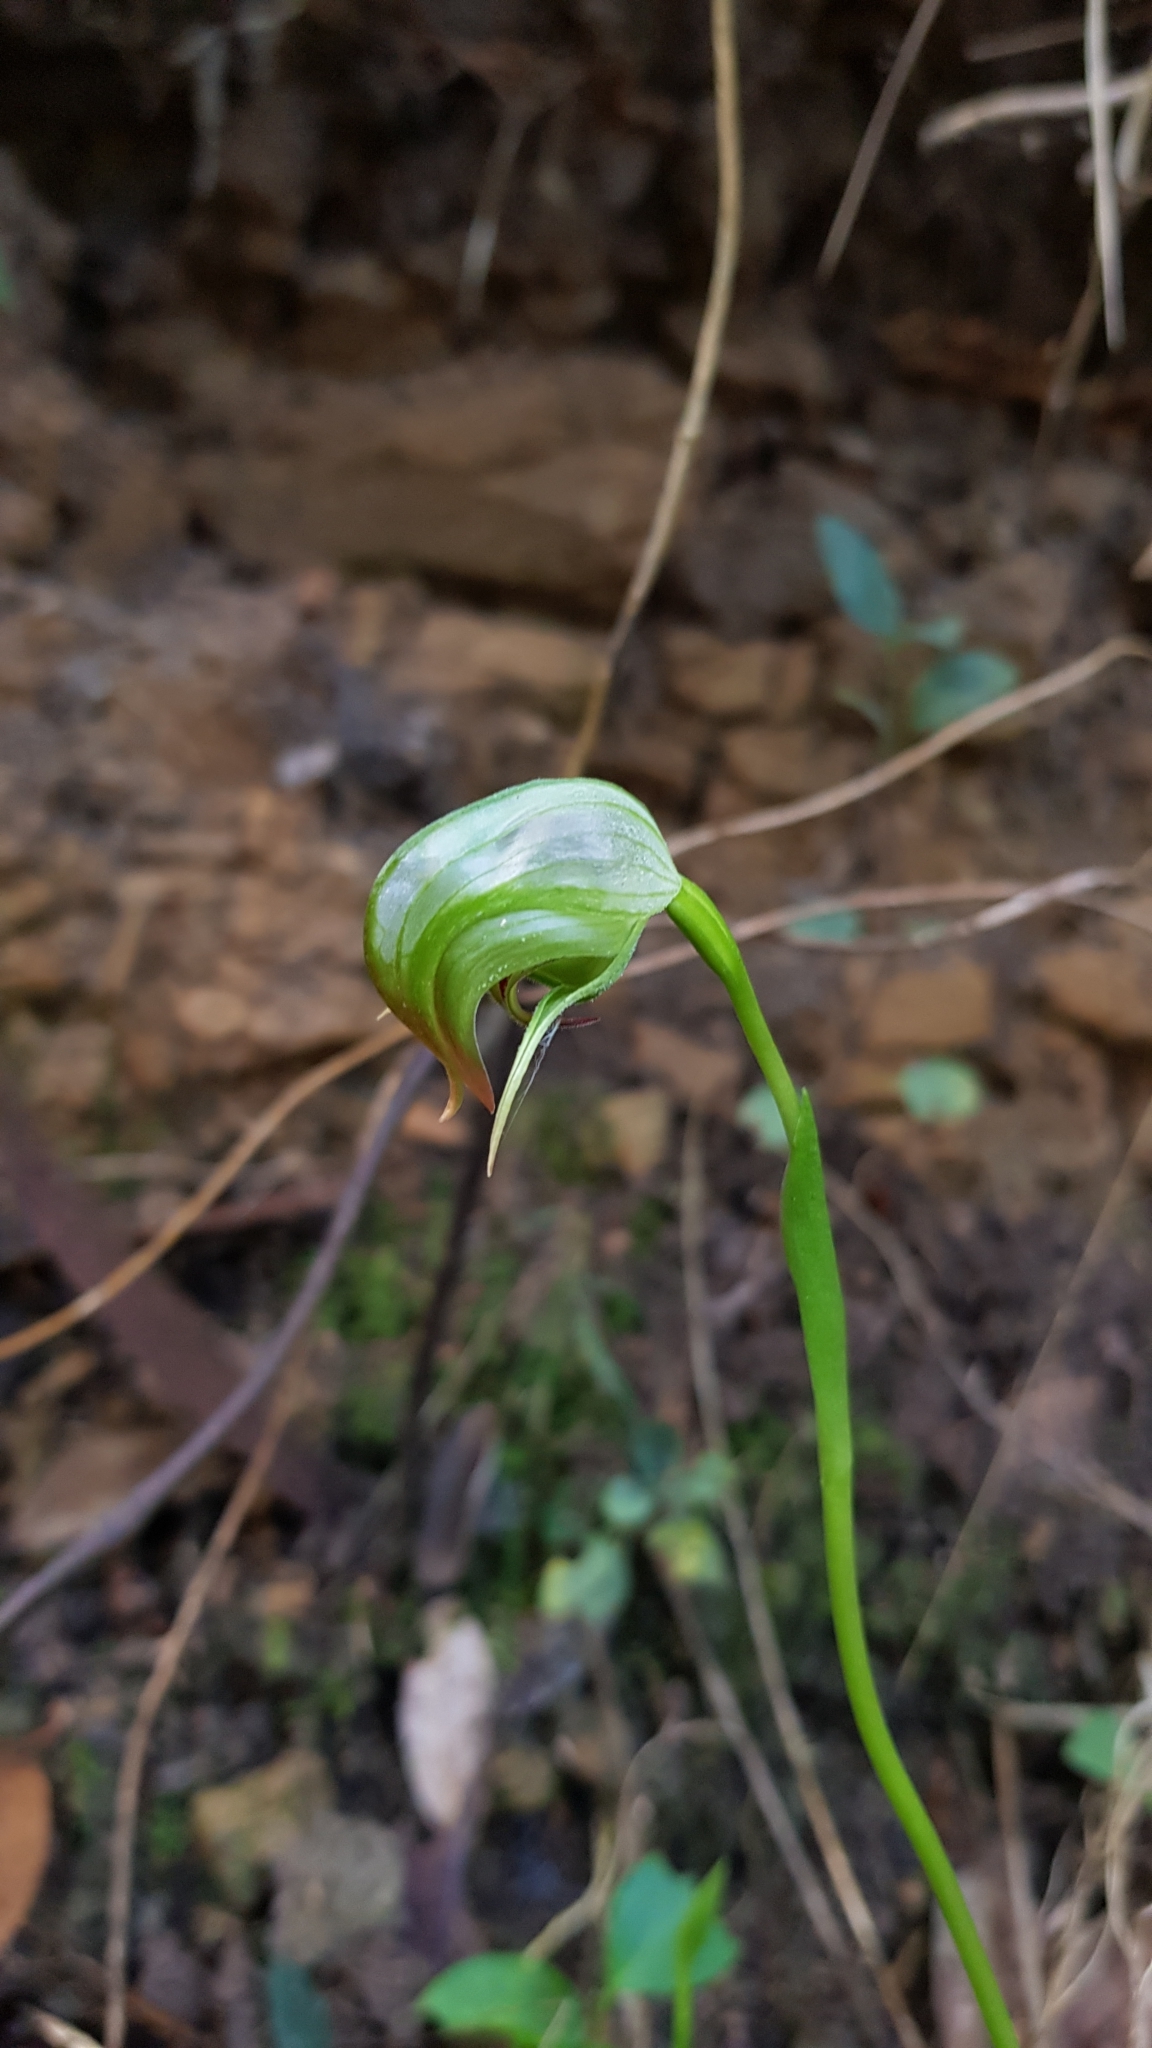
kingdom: Plantae
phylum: Tracheophyta
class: Liliopsida
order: Asparagales
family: Orchidaceae
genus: Pterostylis
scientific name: Pterostylis nutans
